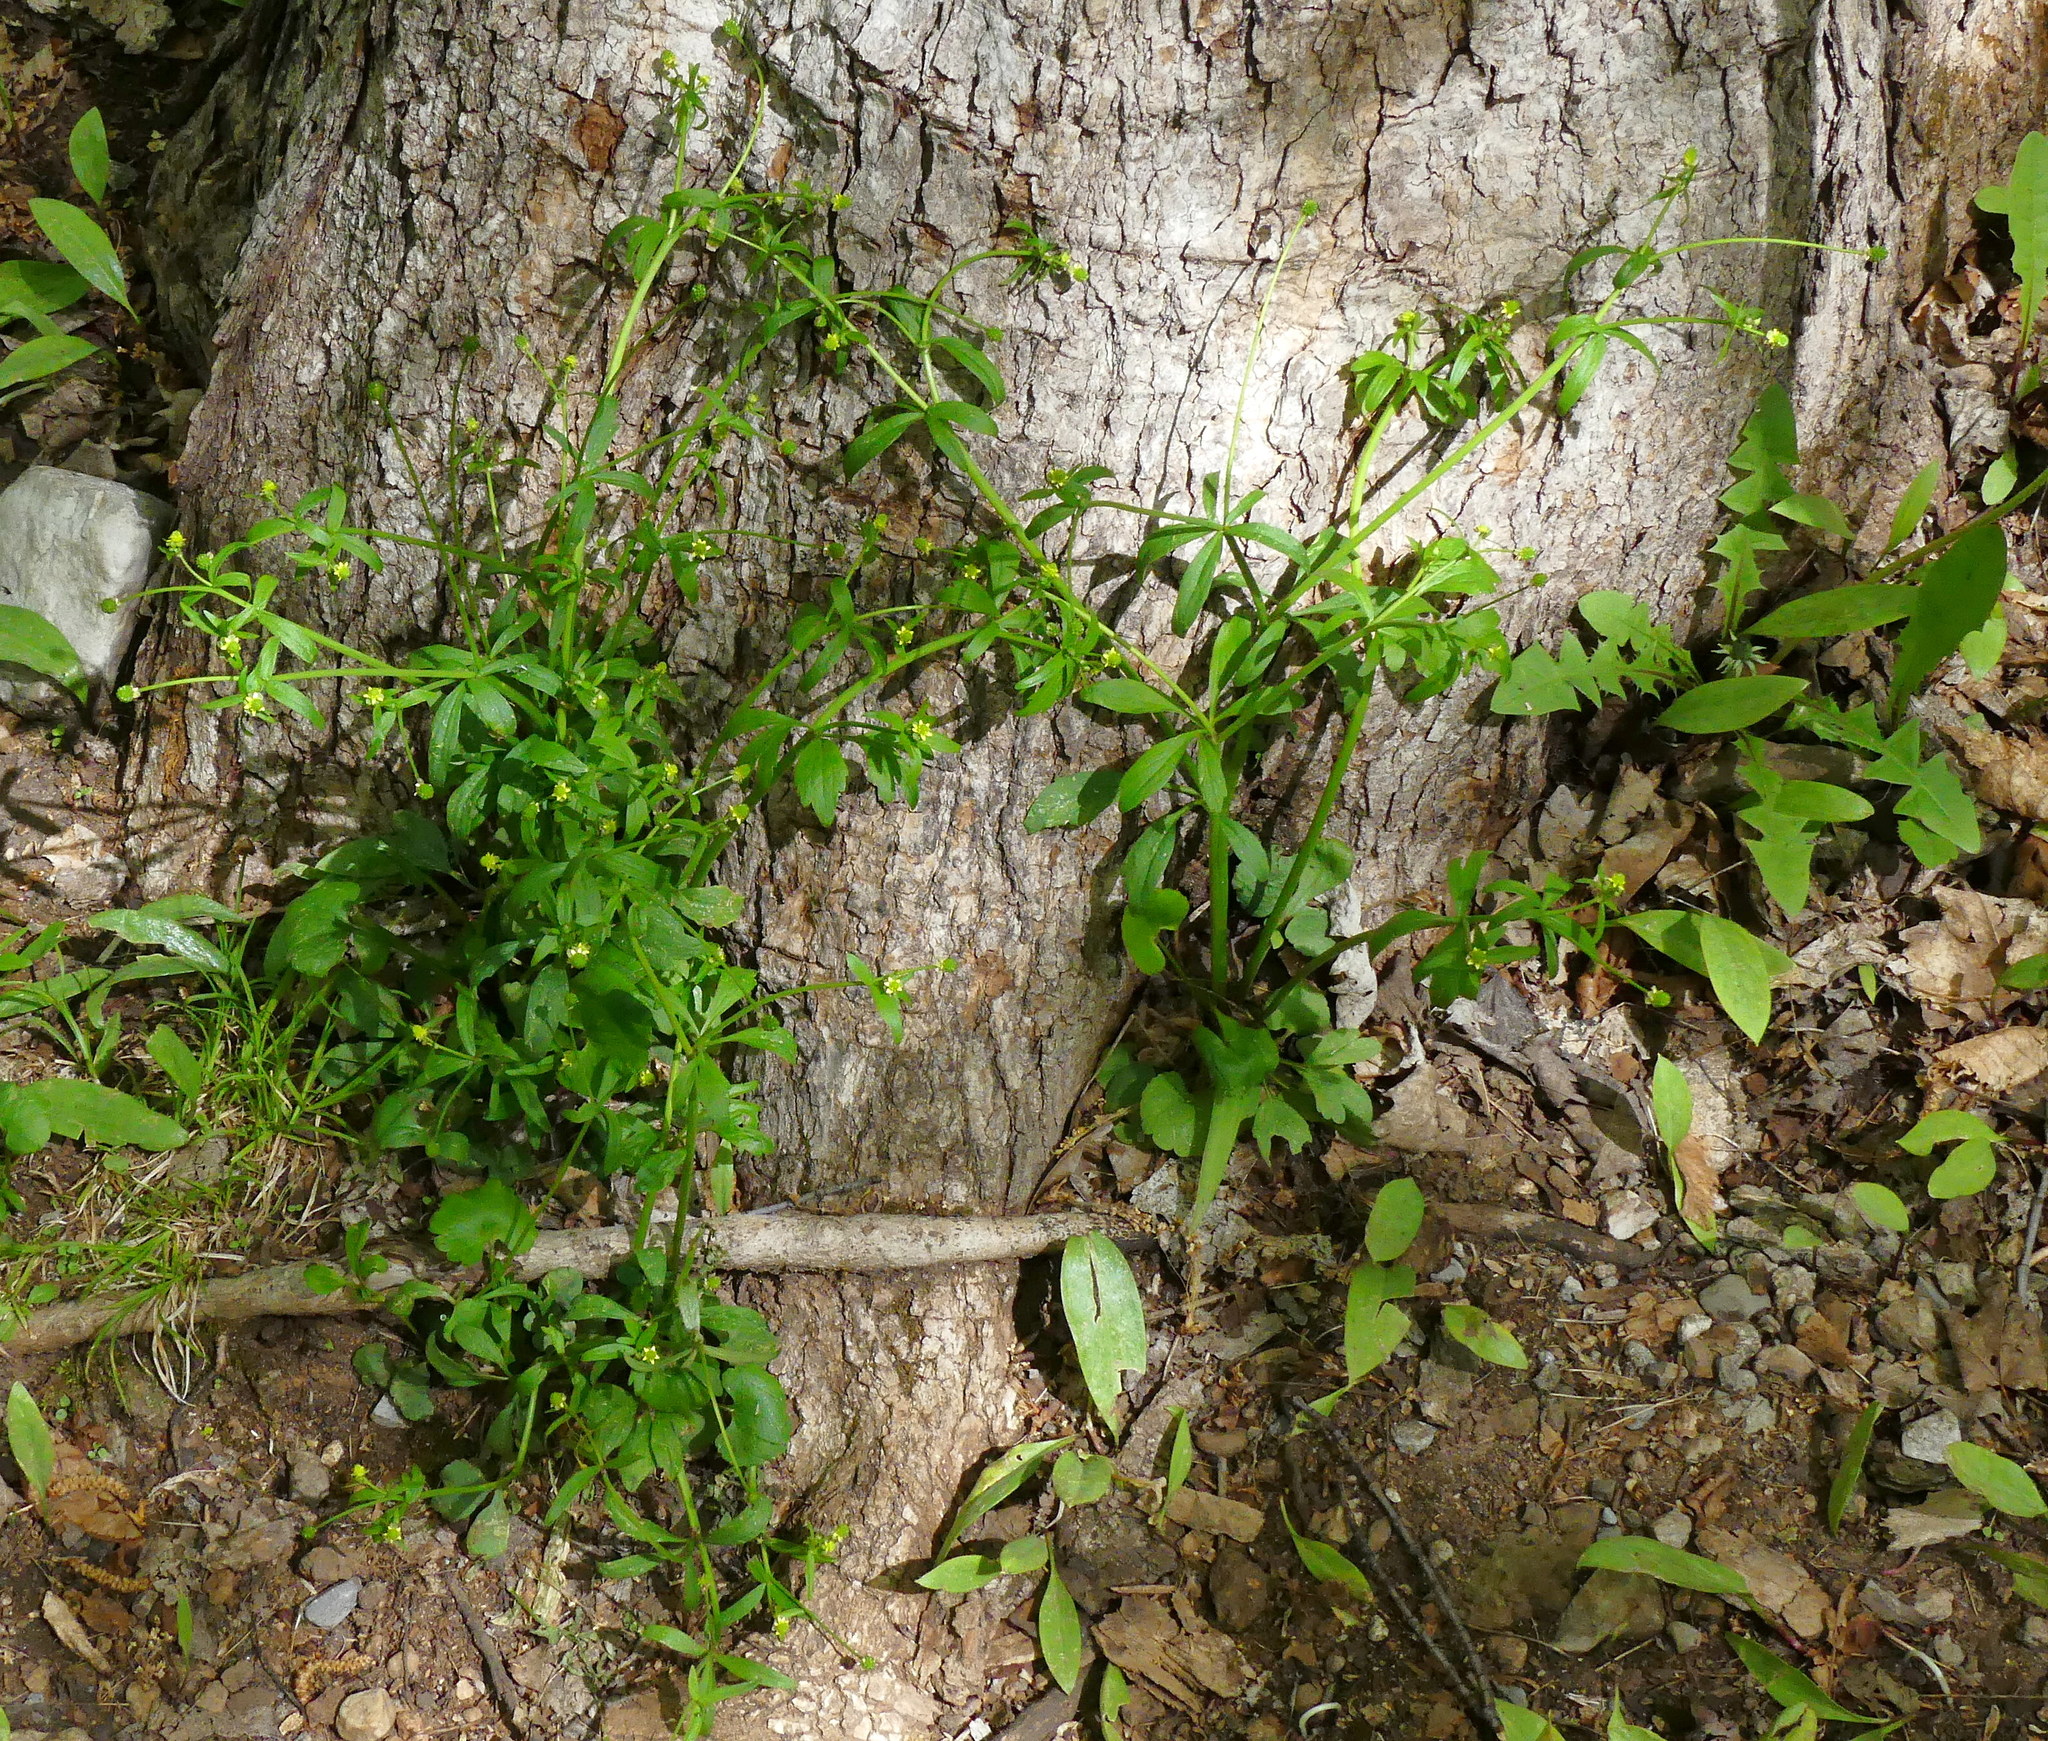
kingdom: Plantae
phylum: Tracheophyta
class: Magnoliopsida
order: Ranunculales
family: Ranunculaceae
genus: Ranunculus
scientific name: Ranunculus abortivus
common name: Early wood buttercup
